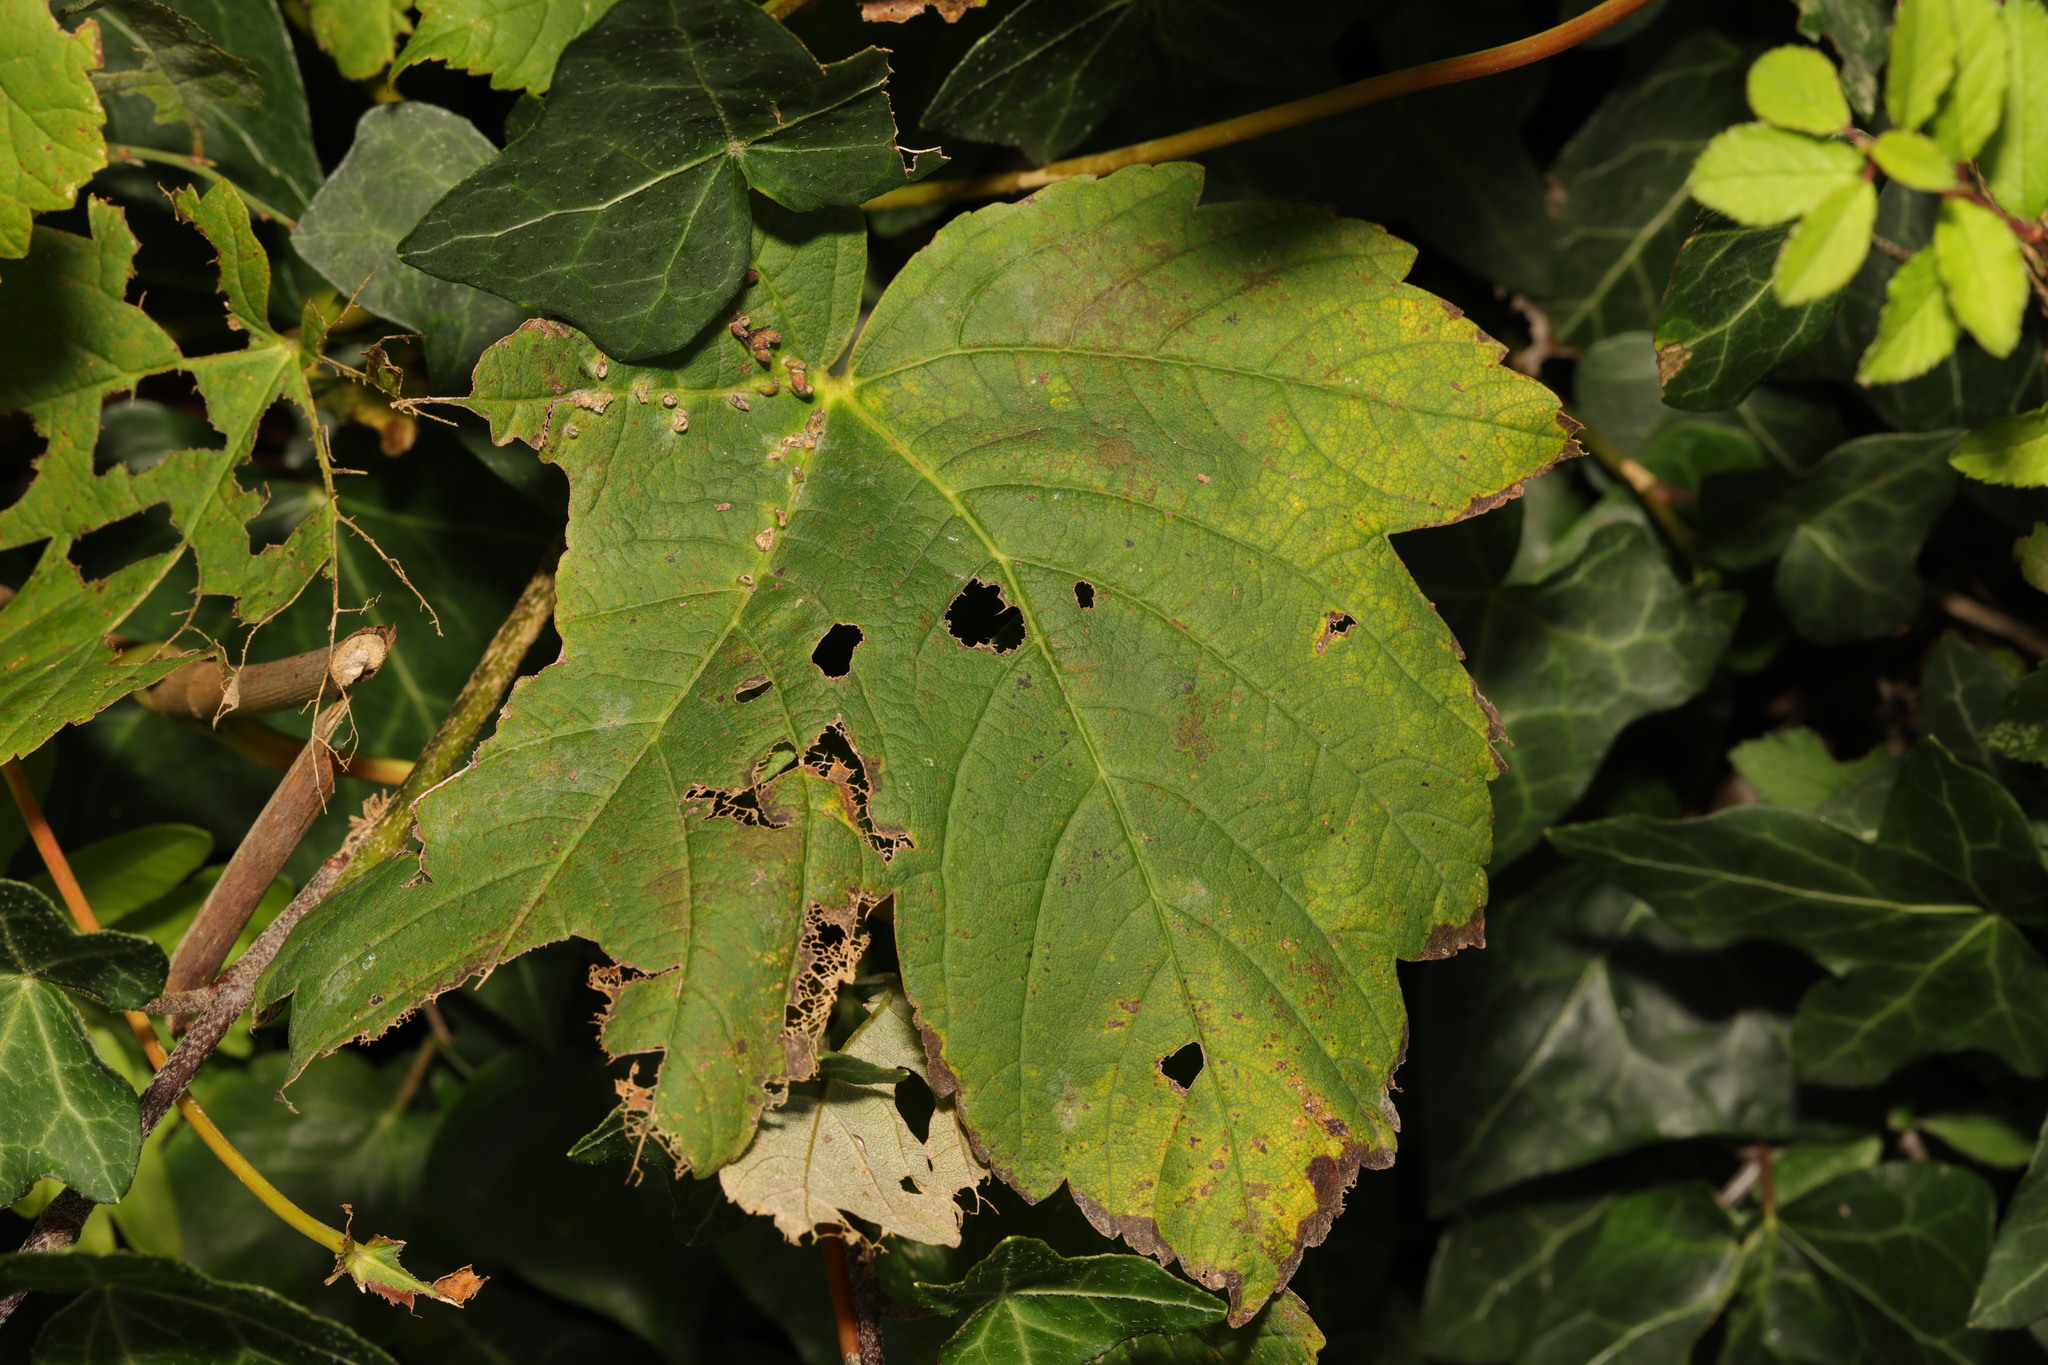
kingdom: Plantae
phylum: Tracheophyta
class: Magnoliopsida
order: Sapindales
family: Sapindaceae
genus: Acer
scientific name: Acer pseudoplatanus
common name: Sycamore
